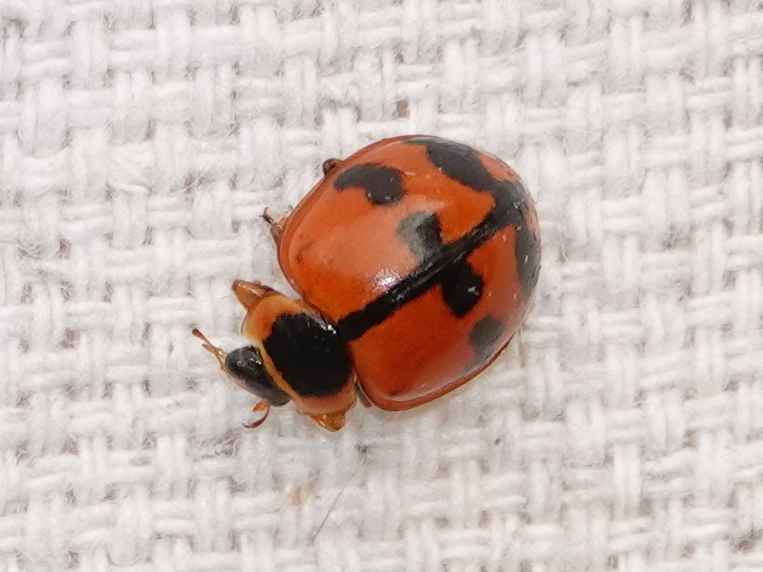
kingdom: Animalia
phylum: Arthropoda
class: Insecta
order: Coleoptera
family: Coccinellidae
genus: Harmonia
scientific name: Harmonia octomaculata
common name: Lady beetle
